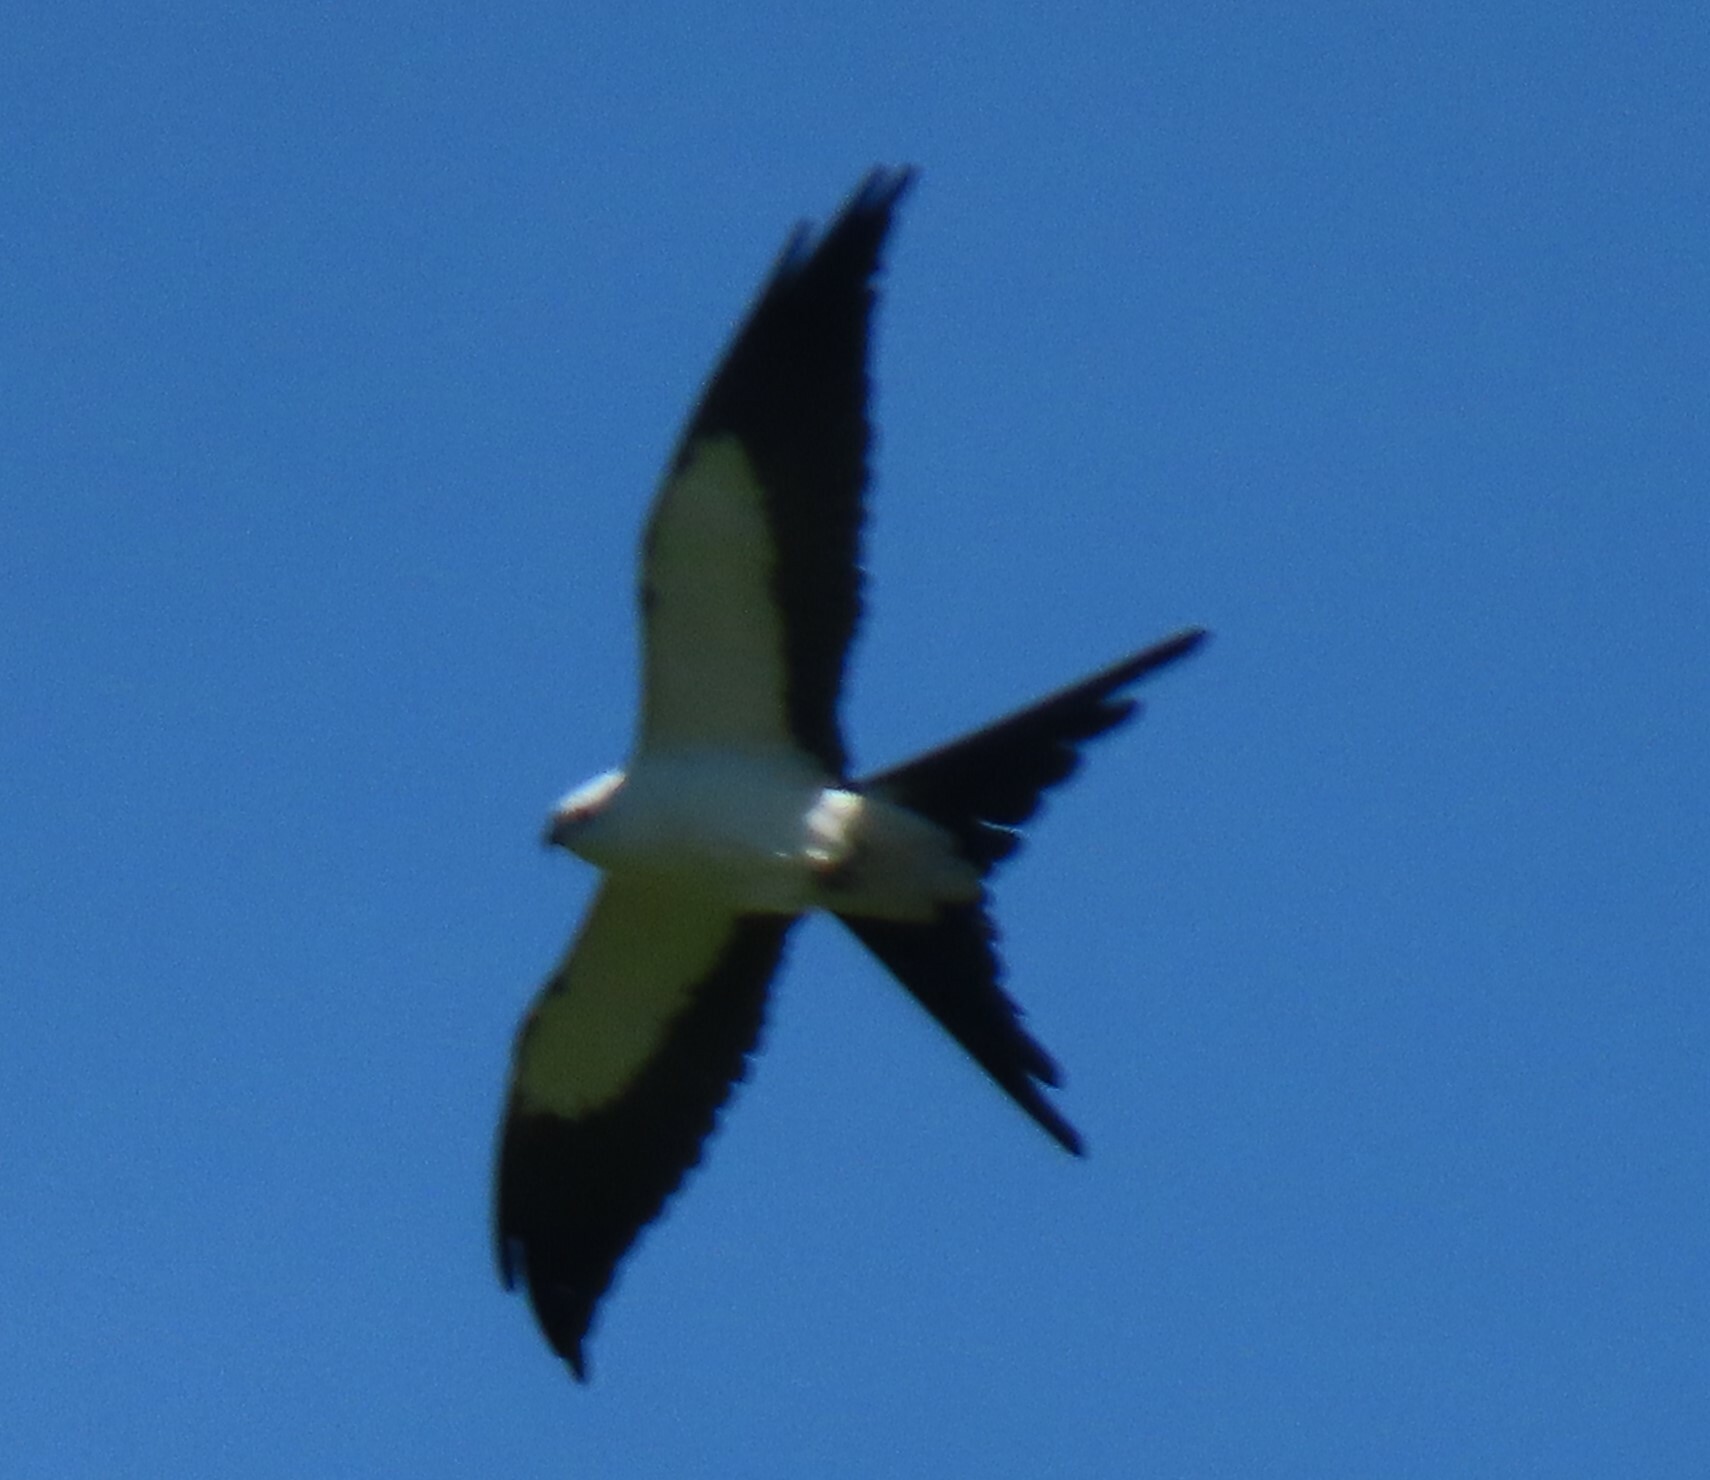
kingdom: Animalia
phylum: Chordata
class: Aves
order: Accipitriformes
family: Accipitridae
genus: Elanoides
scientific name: Elanoides forficatus
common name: Swallow-tailed kite
